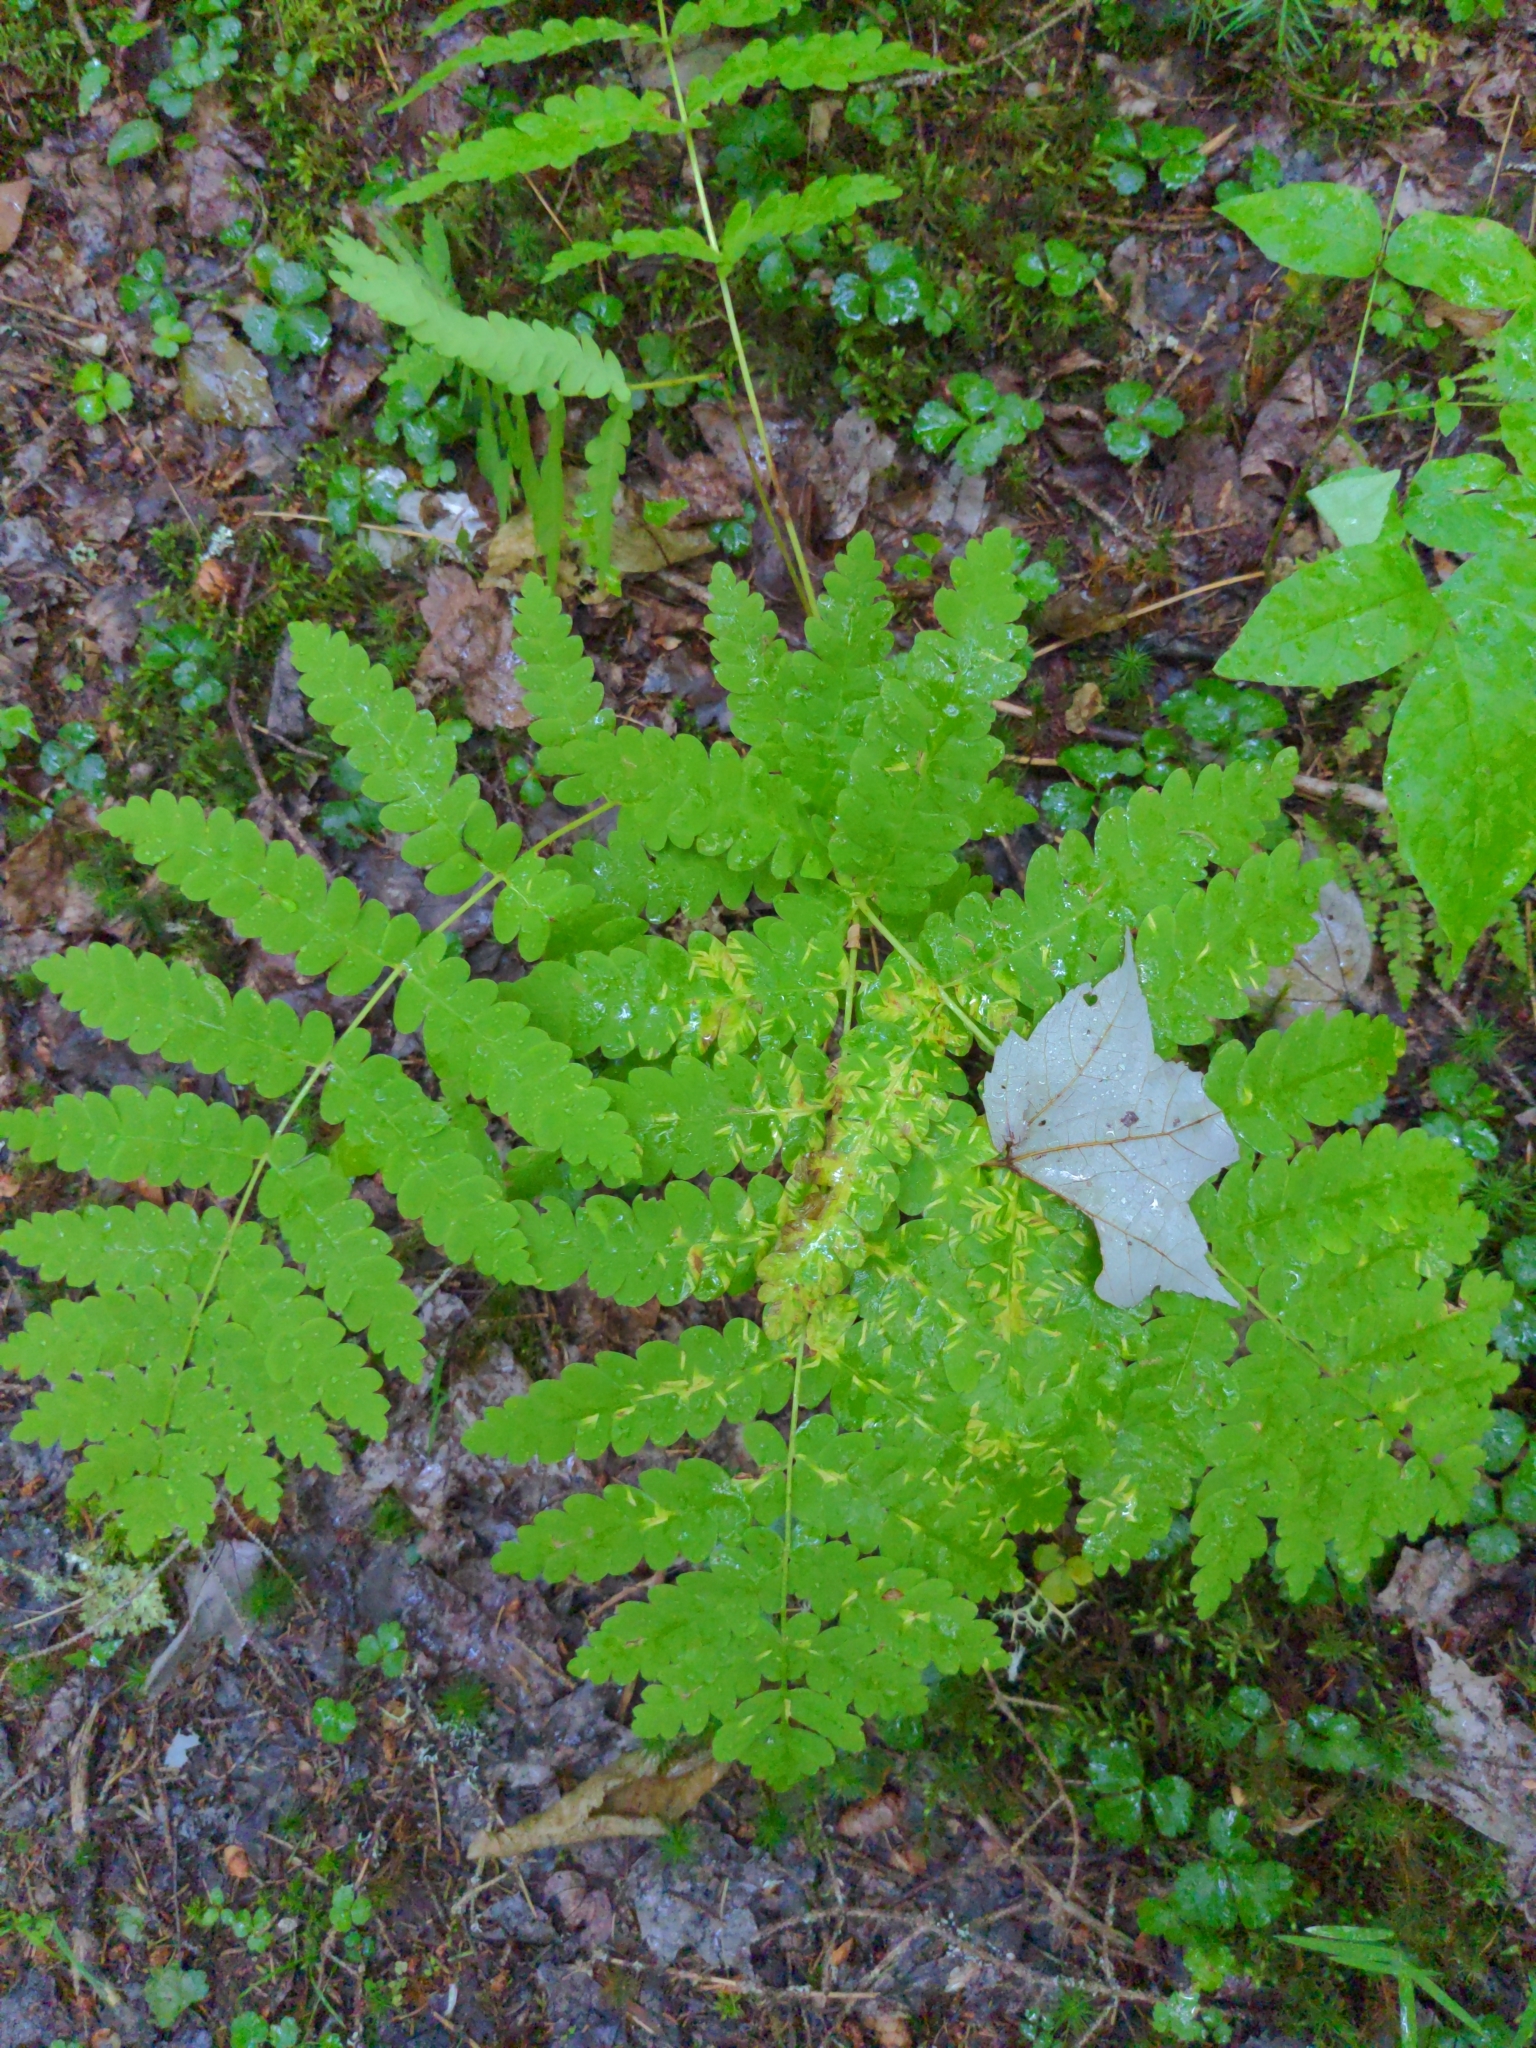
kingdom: Plantae
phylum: Tracheophyta
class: Polypodiopsida
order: Osmundales
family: Osmundaceae
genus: Claytosmunda
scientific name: Claytosmunda claytoniana
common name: Clayton's fern
